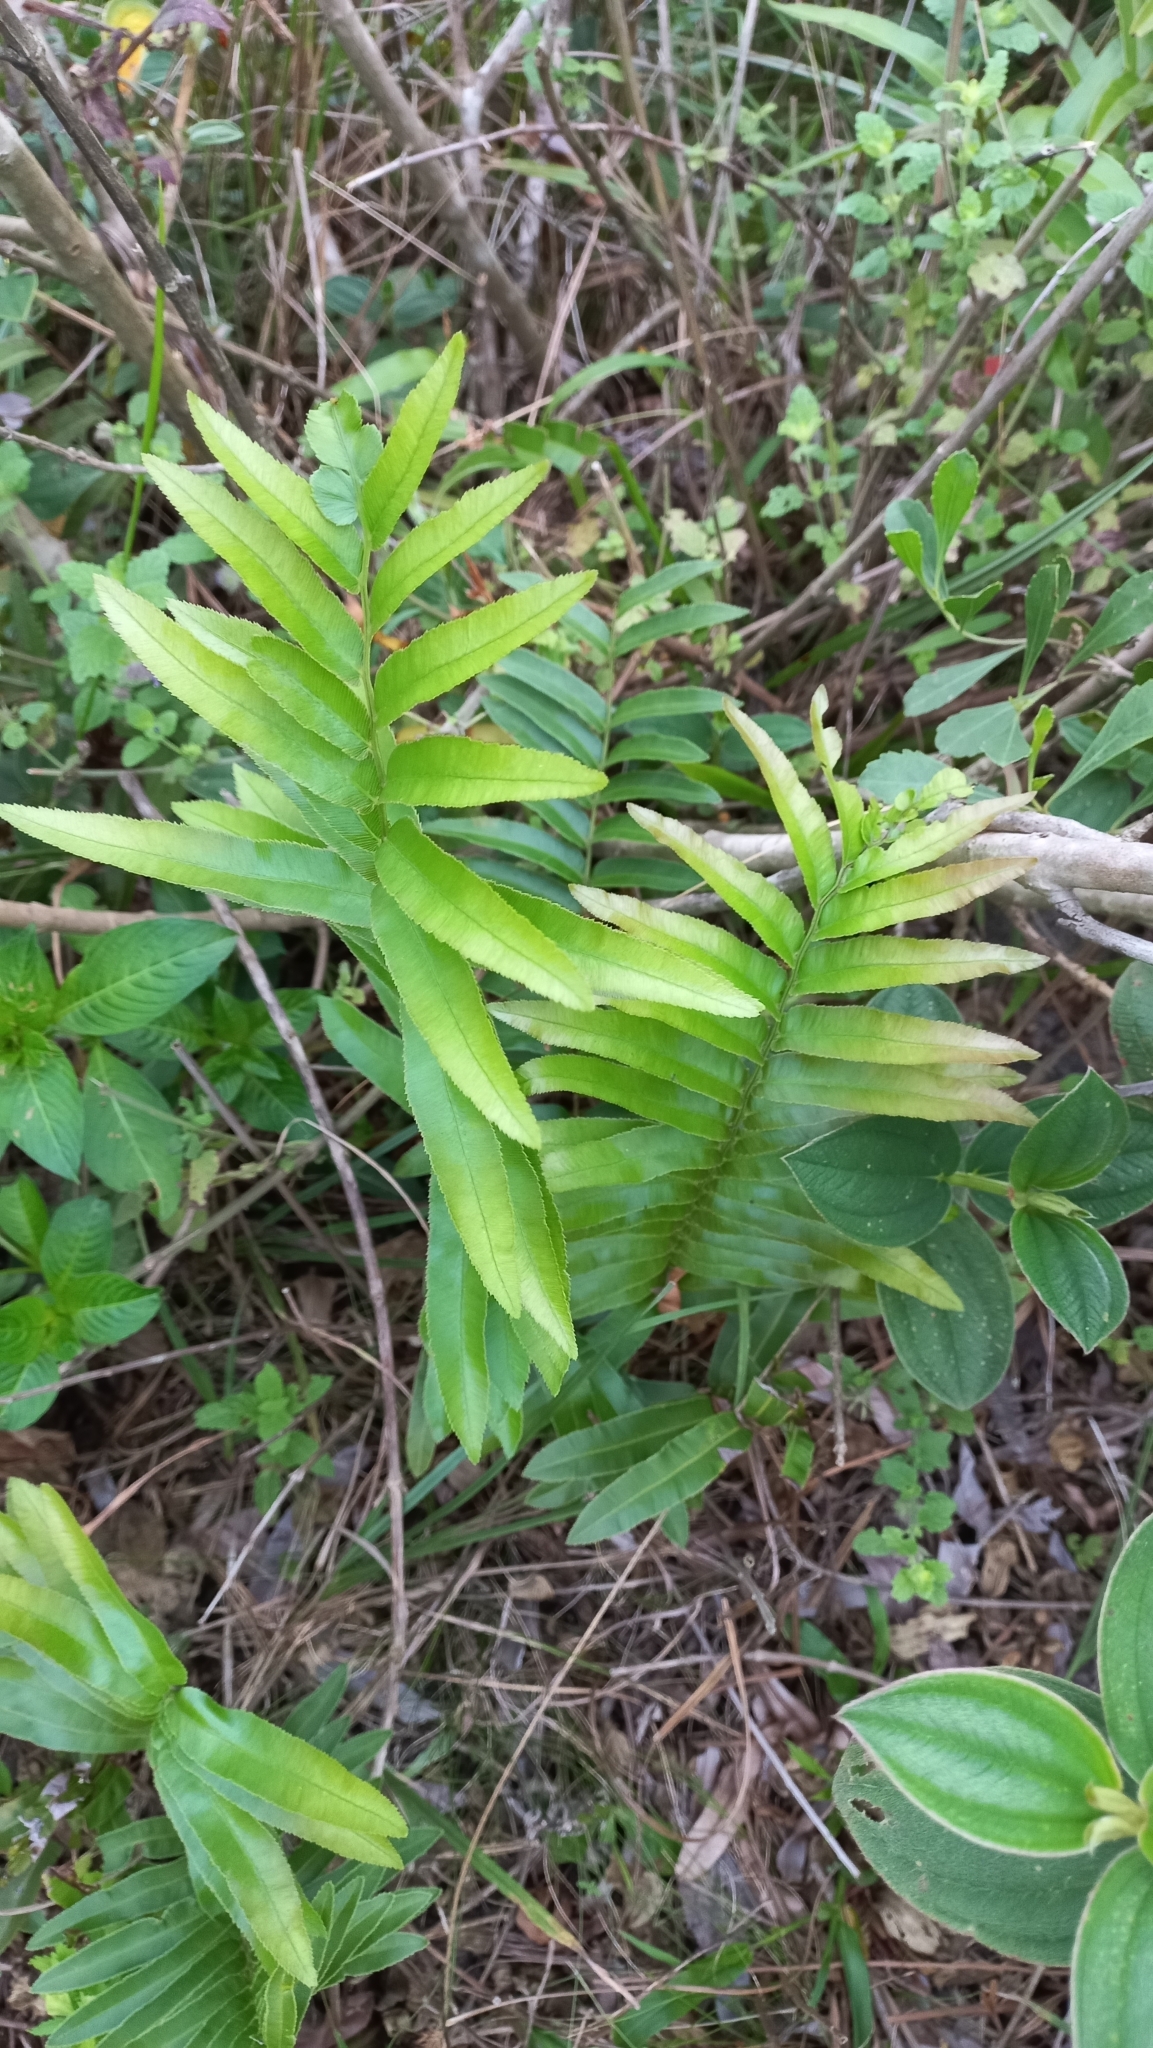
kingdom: Plantae
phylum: Tracheophyta
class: Polypodiopsida
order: Polypodiales
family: Blechnaceae
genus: Telmatoblechnum
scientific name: Telmatoblechnum serrulatum
